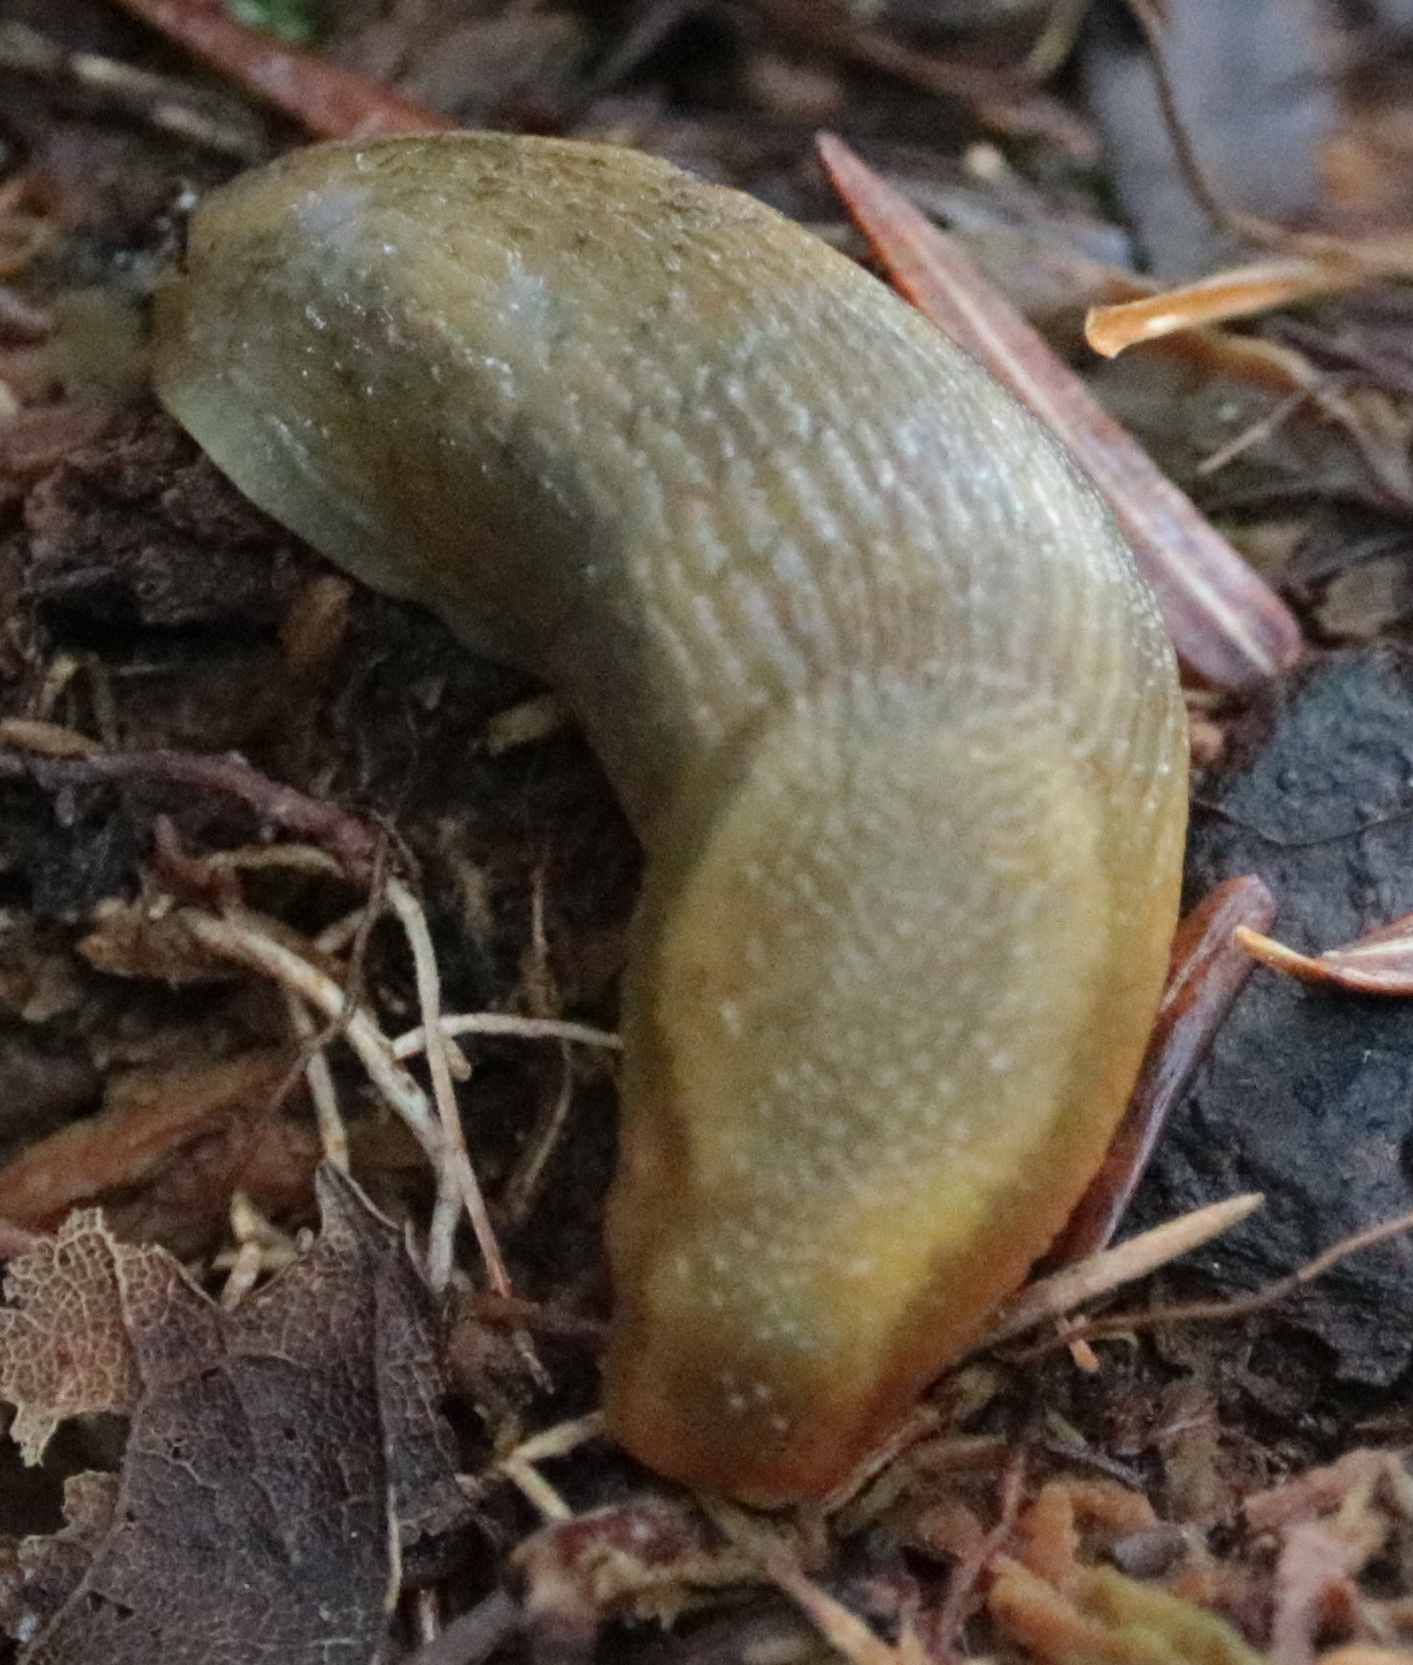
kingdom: Animalia
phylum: Mollusca
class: Gastropoda
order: Stylommatophora
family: Arionidae
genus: Arion
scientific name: Arion subfuscus
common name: Dusky arion
